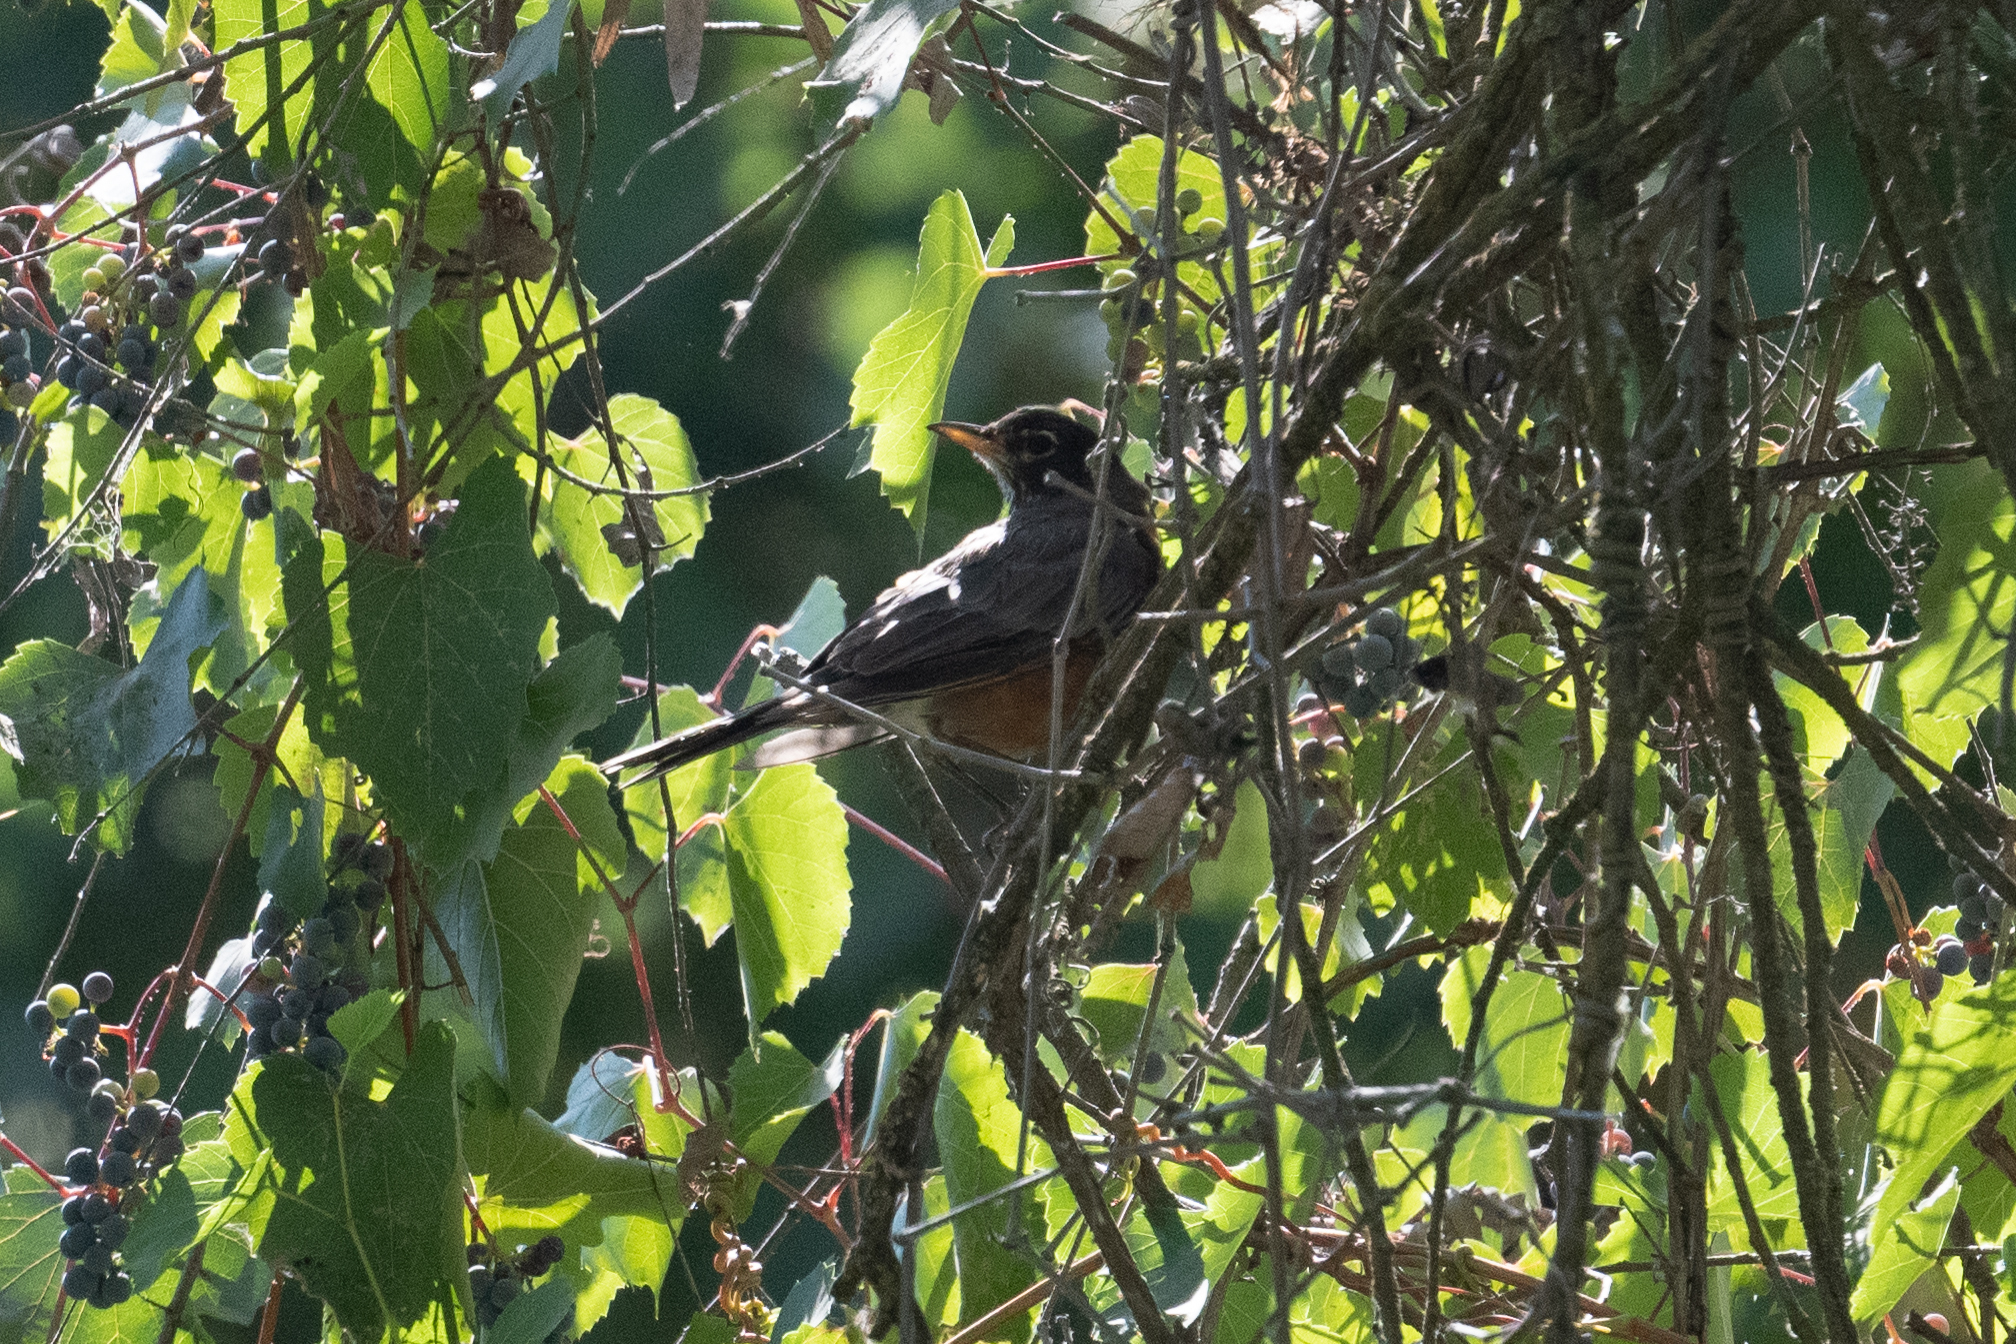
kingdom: Animalia
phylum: Chordata
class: Aves
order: Passeriformes
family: Turdidae
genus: Turdus
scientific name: Turdus migratorius
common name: American robin
